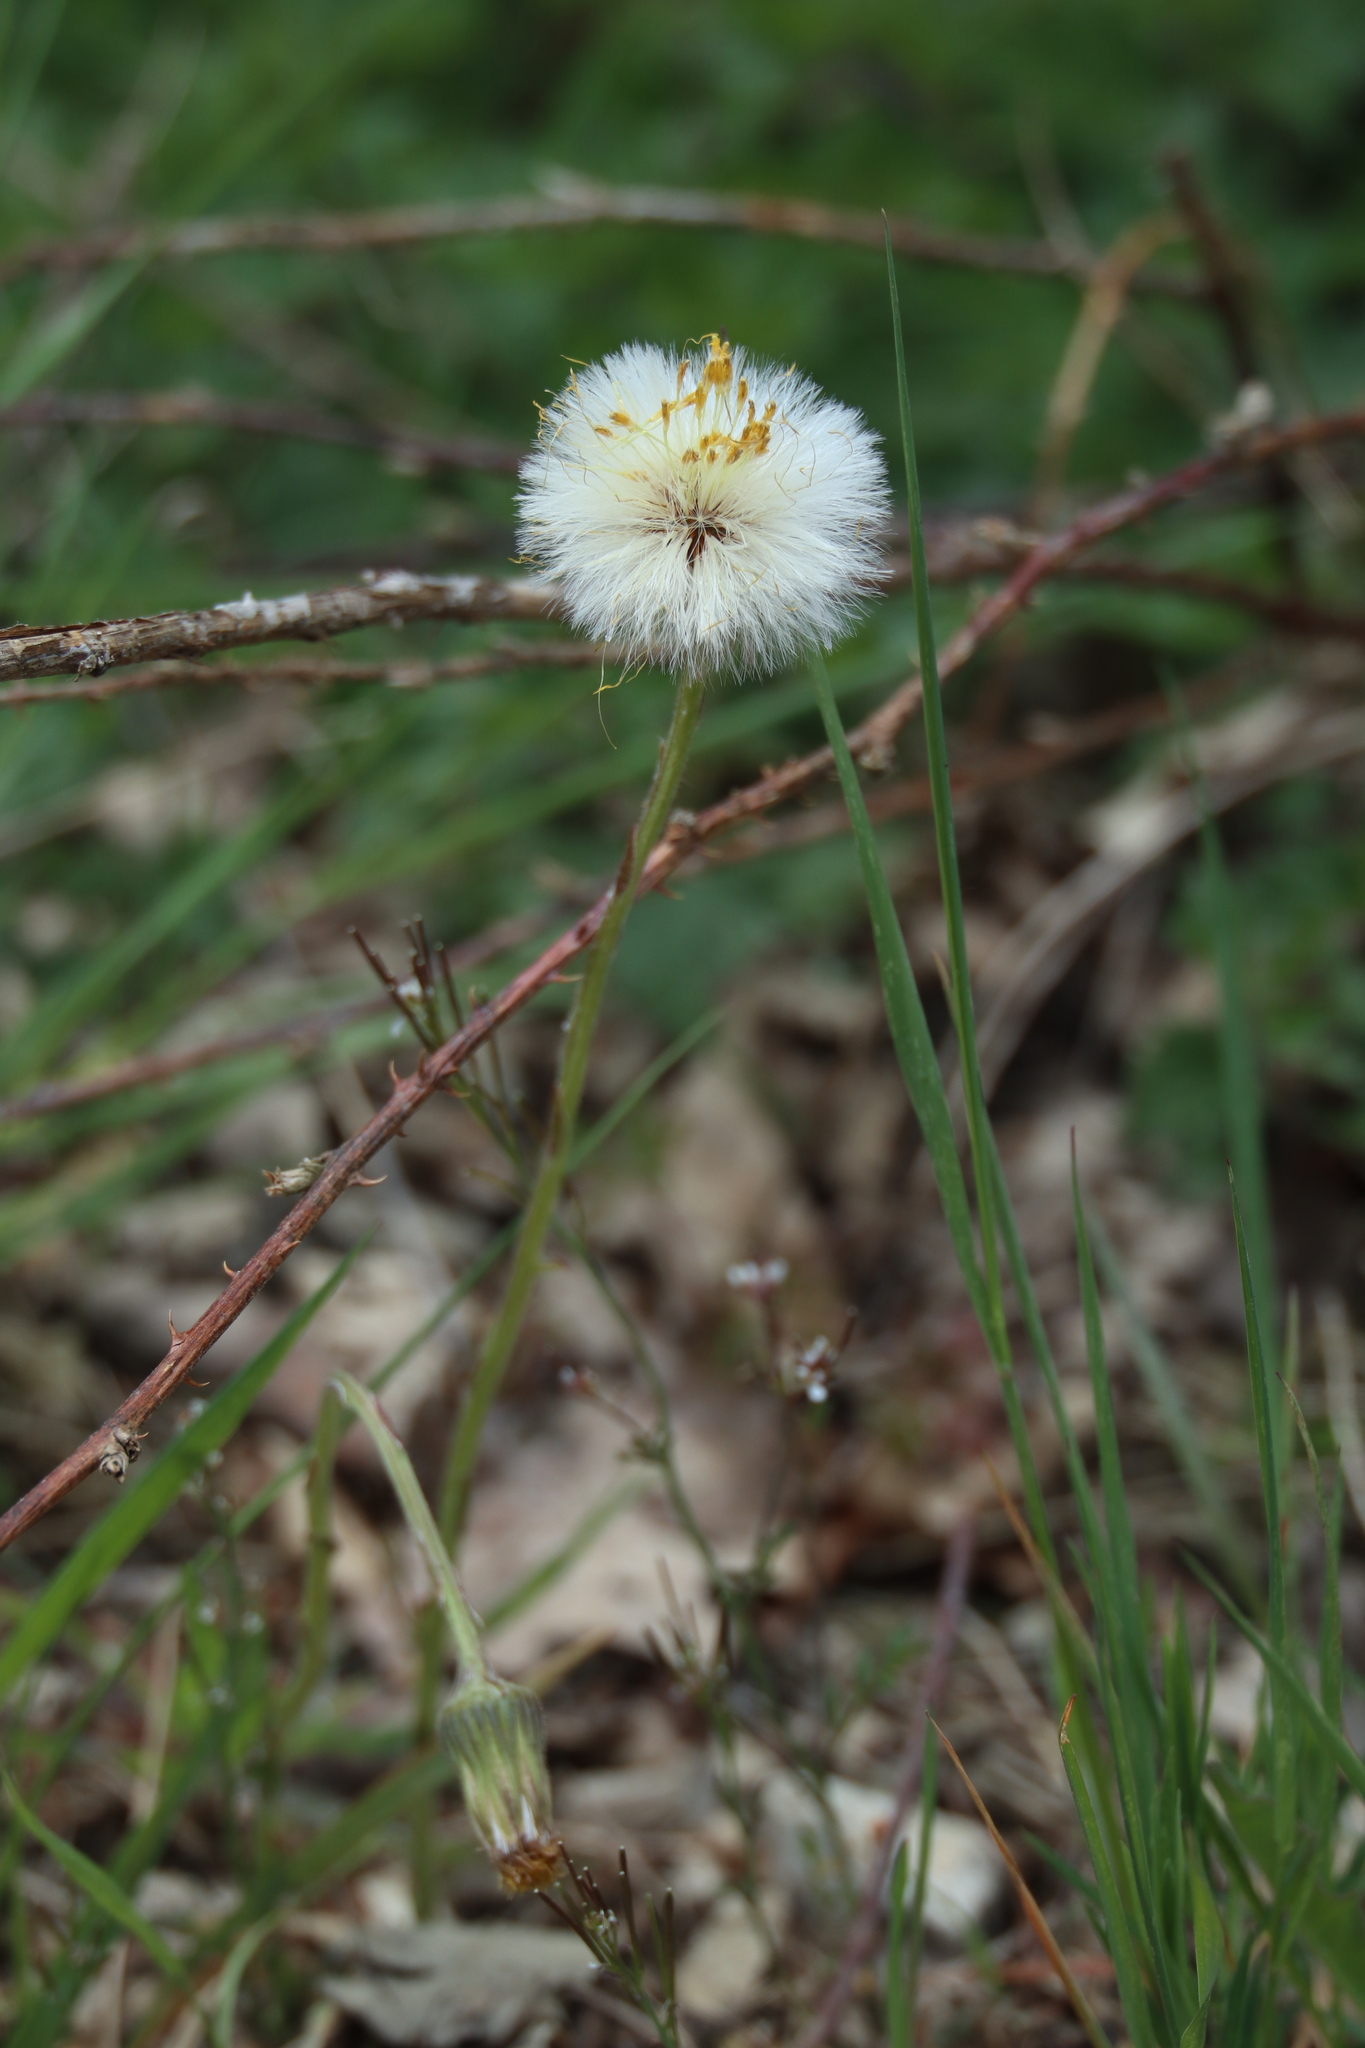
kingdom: Plantae
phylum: Tracheophyta
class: Magnoliopsida
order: Asterales
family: Asteraceae
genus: Tussilago
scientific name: Tussilago farfara
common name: Coltsfoot
